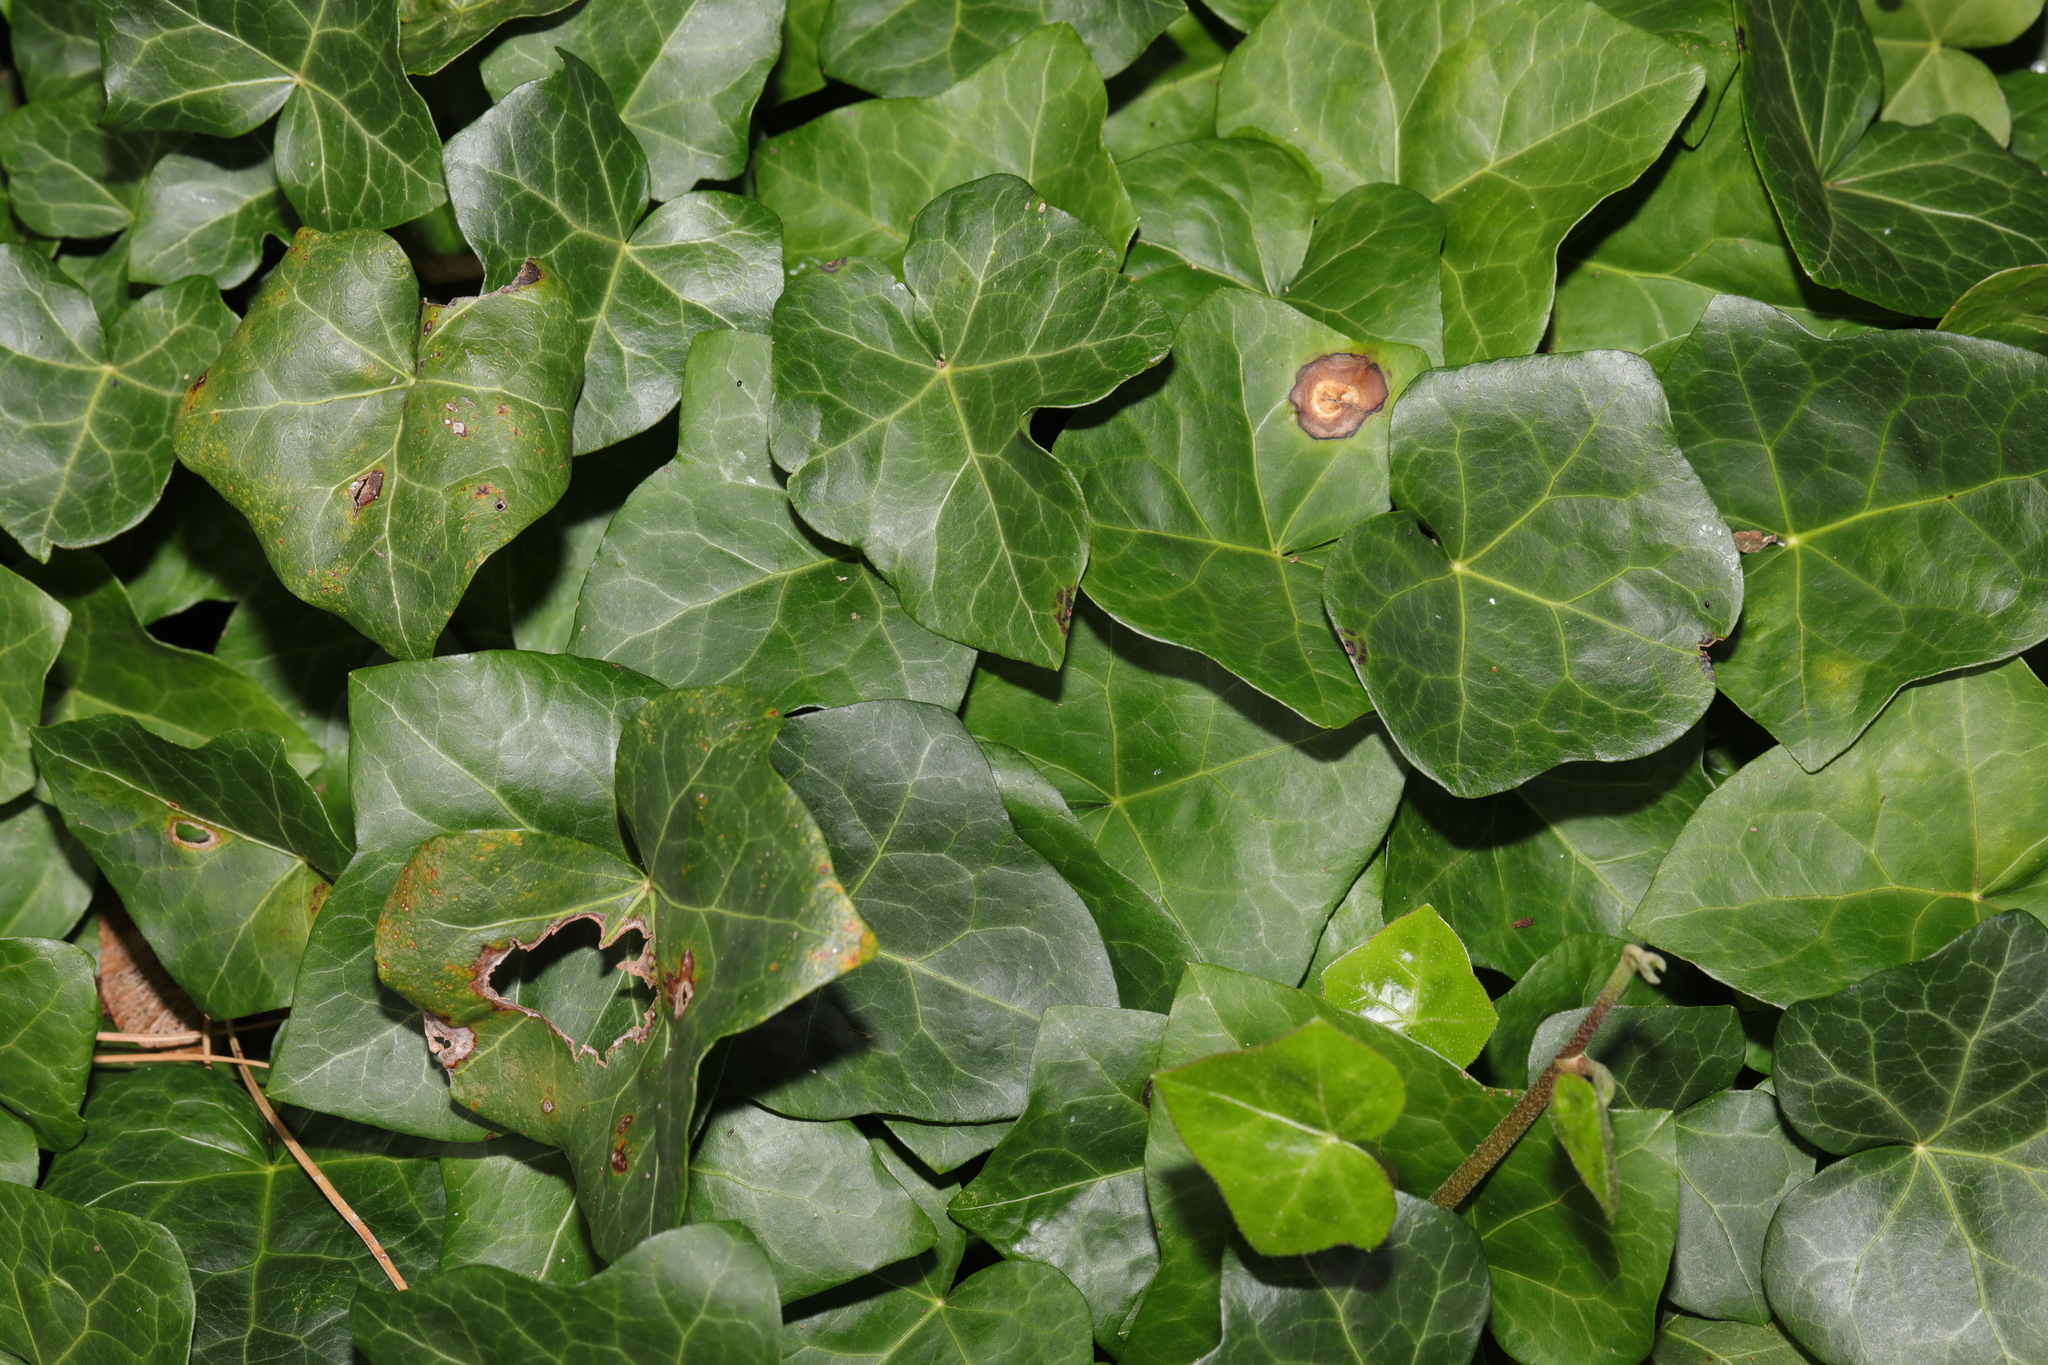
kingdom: Plantae
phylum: Tracheophyta
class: Magnoliopsida
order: Apiales
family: Araliaceae
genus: Hedera
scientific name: Hedera helix
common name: Ivy
